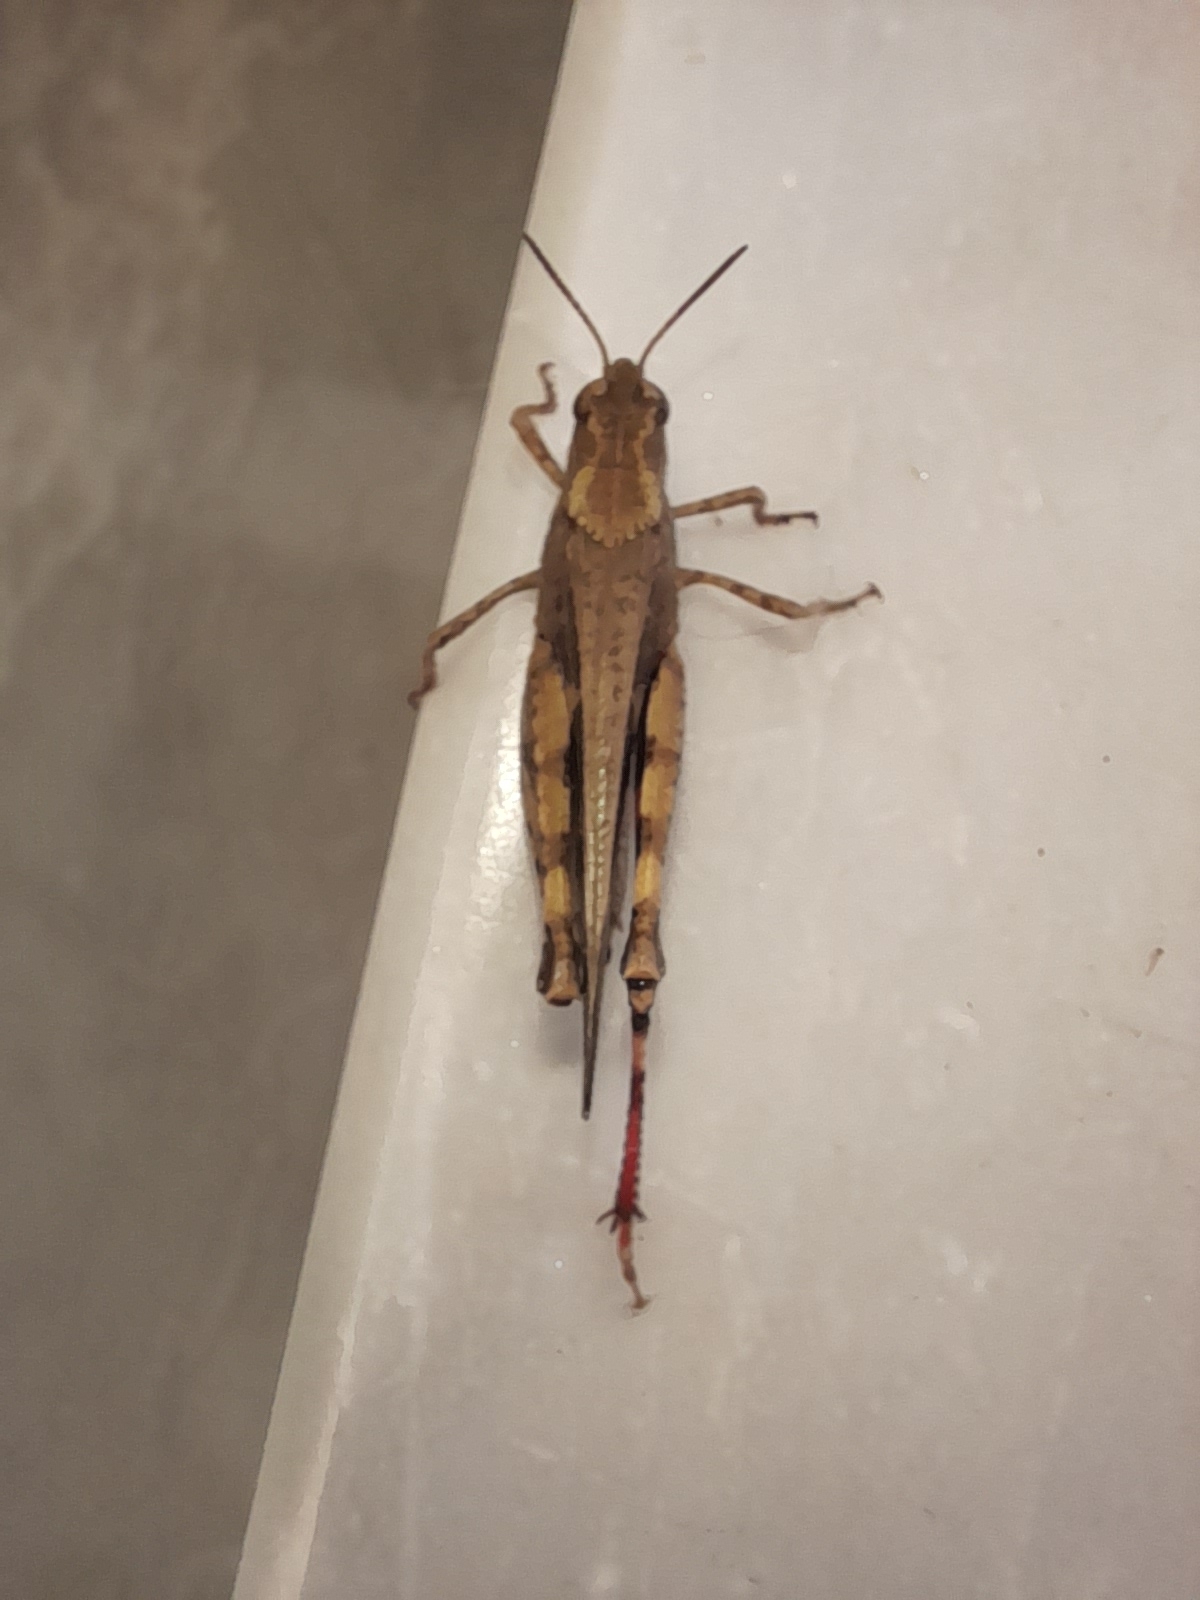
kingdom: Animalia
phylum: Arthropoda
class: Insecta
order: Orthoptera
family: Acrididae
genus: Aiolopus
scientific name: Aiolopus strepens
